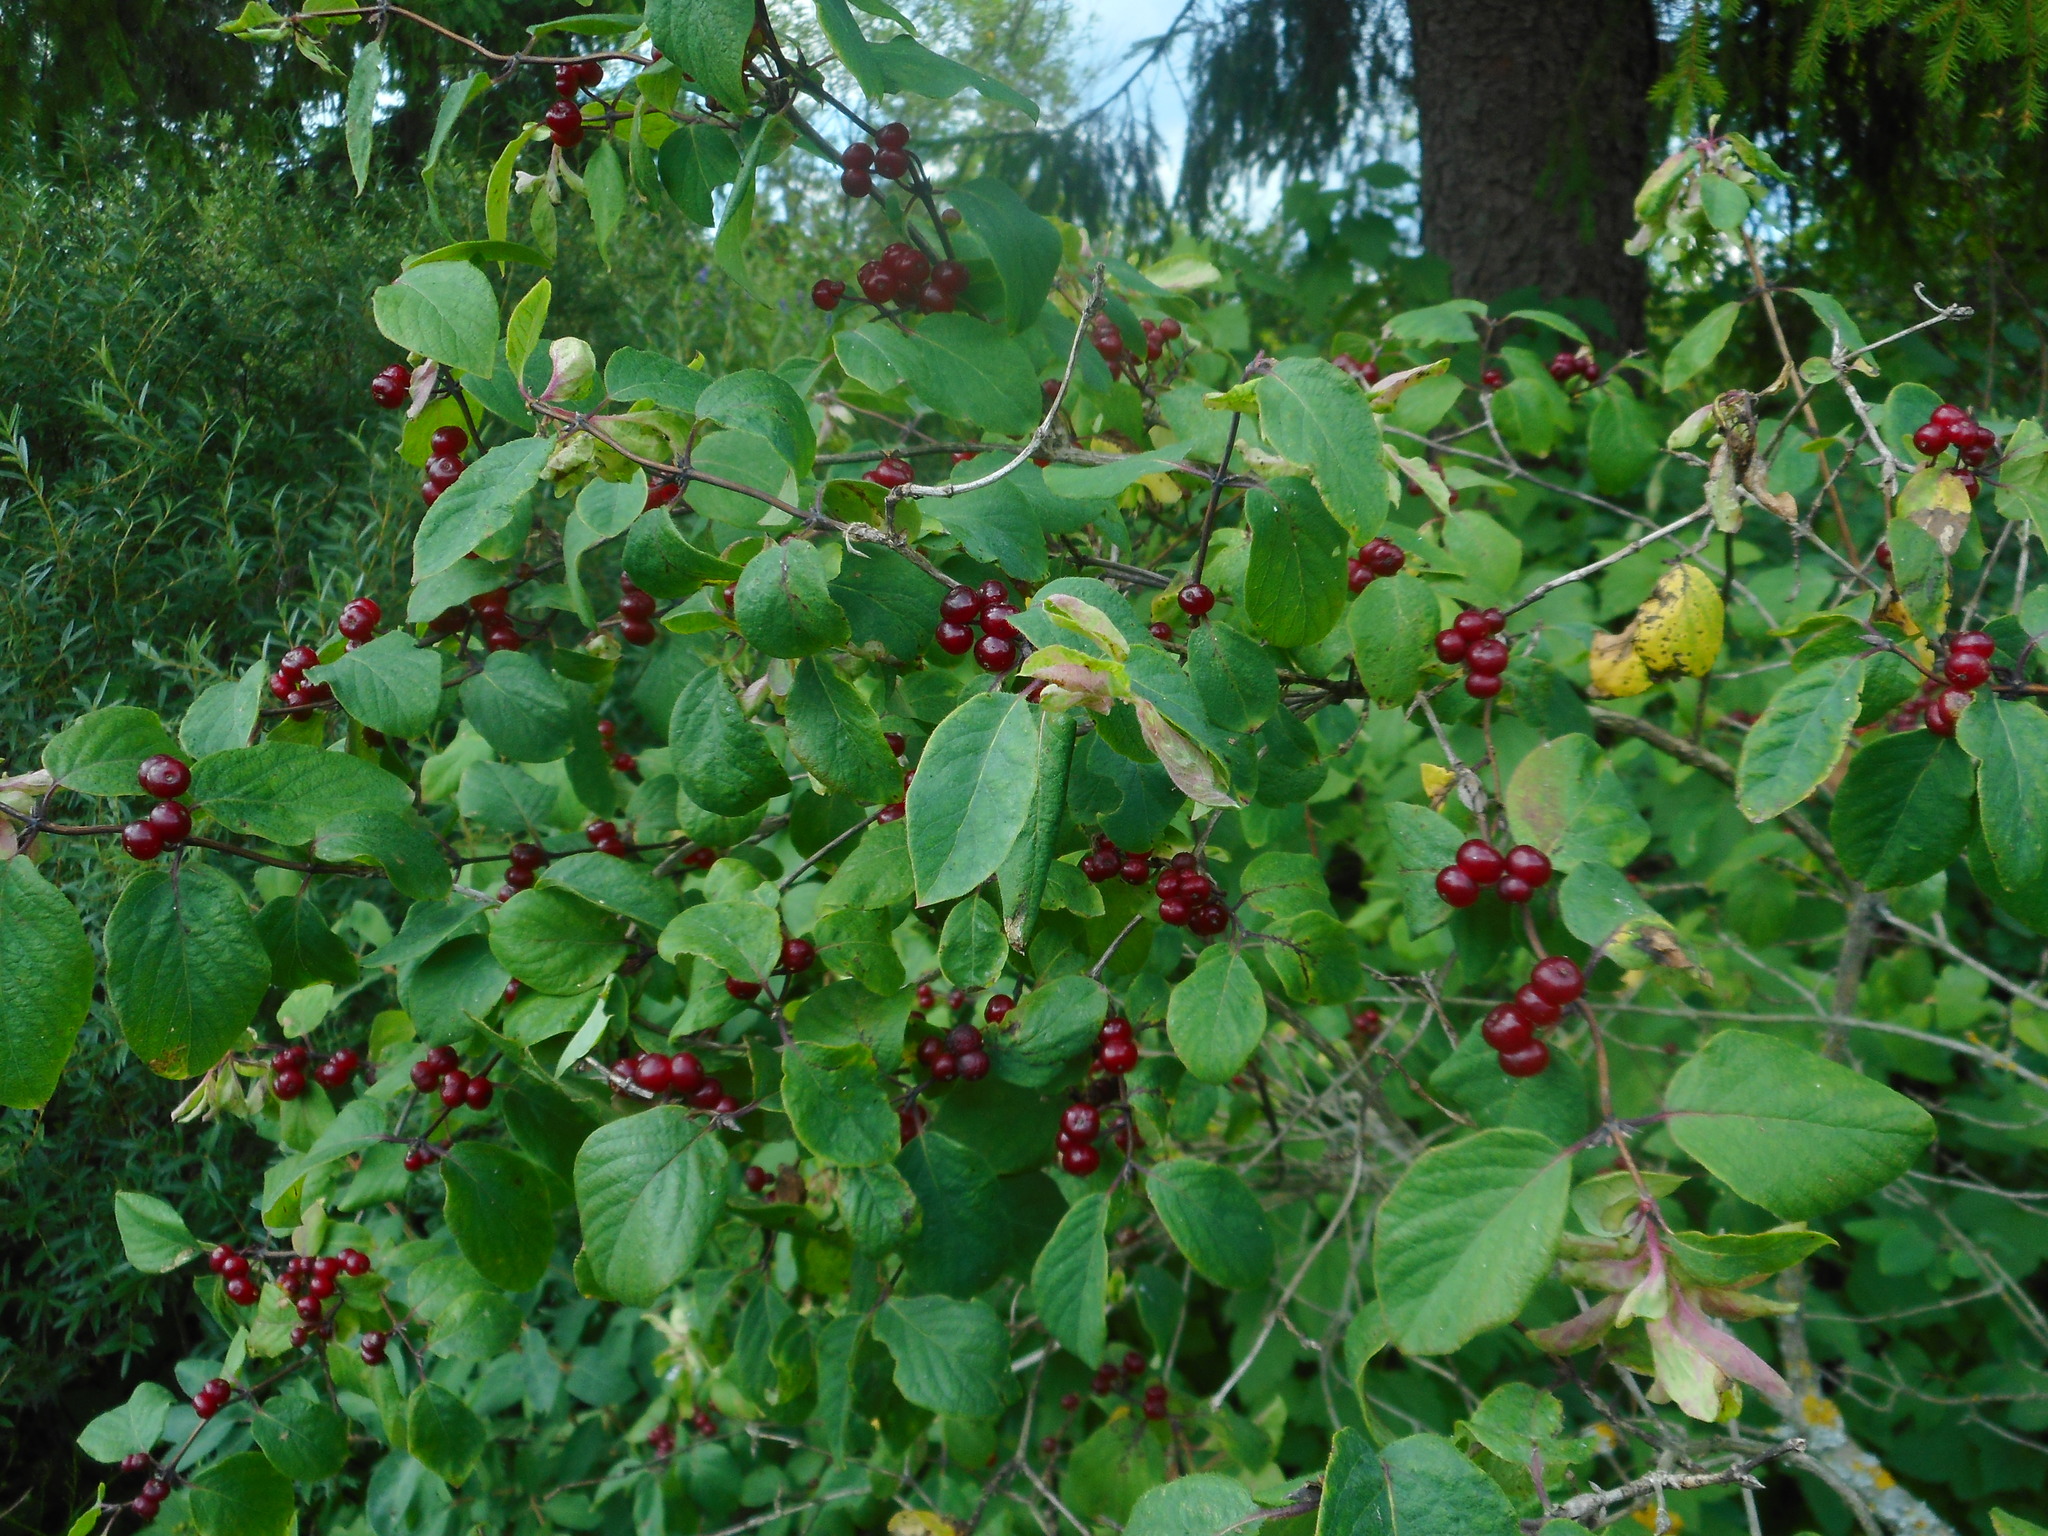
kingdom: Plantae
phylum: Tracheophyta
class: Magnoliopsida
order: Dipsacales
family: Caprifoliaceae
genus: Lonicera
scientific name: Lonicera xylosteum
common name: Fly honeysuckle
